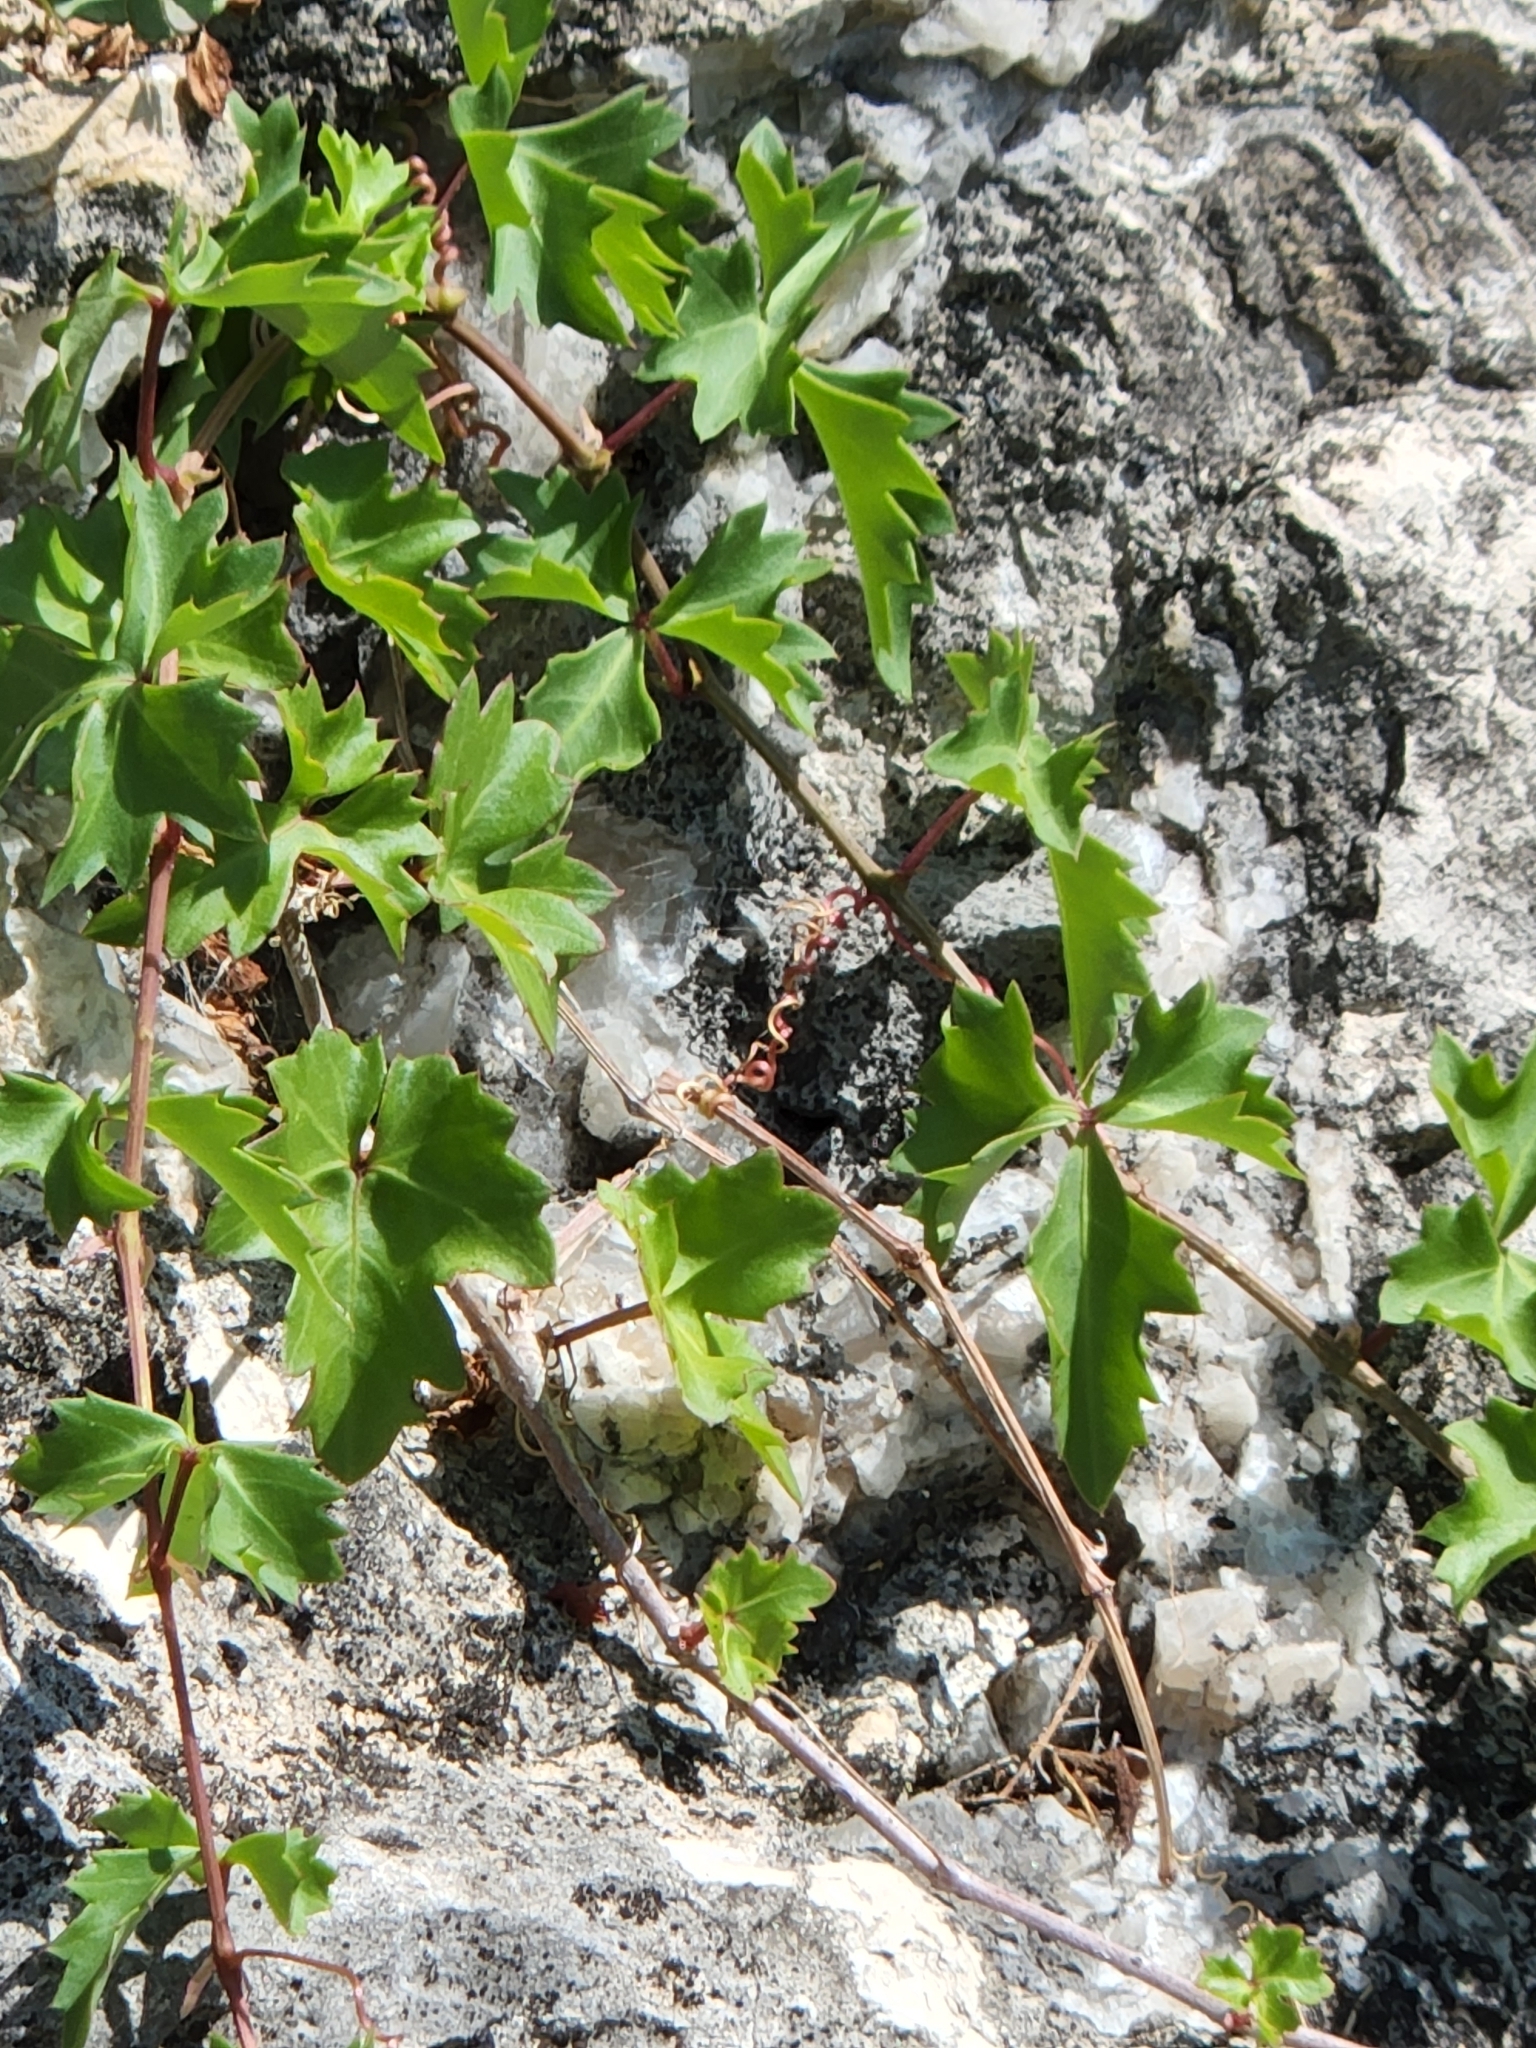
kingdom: Plantae
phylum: Tracheophyta
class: Magnoliopsida
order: Vitales
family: Vitaceae
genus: Cissus
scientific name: Cissus trifoliata
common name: Vine-sorrel
